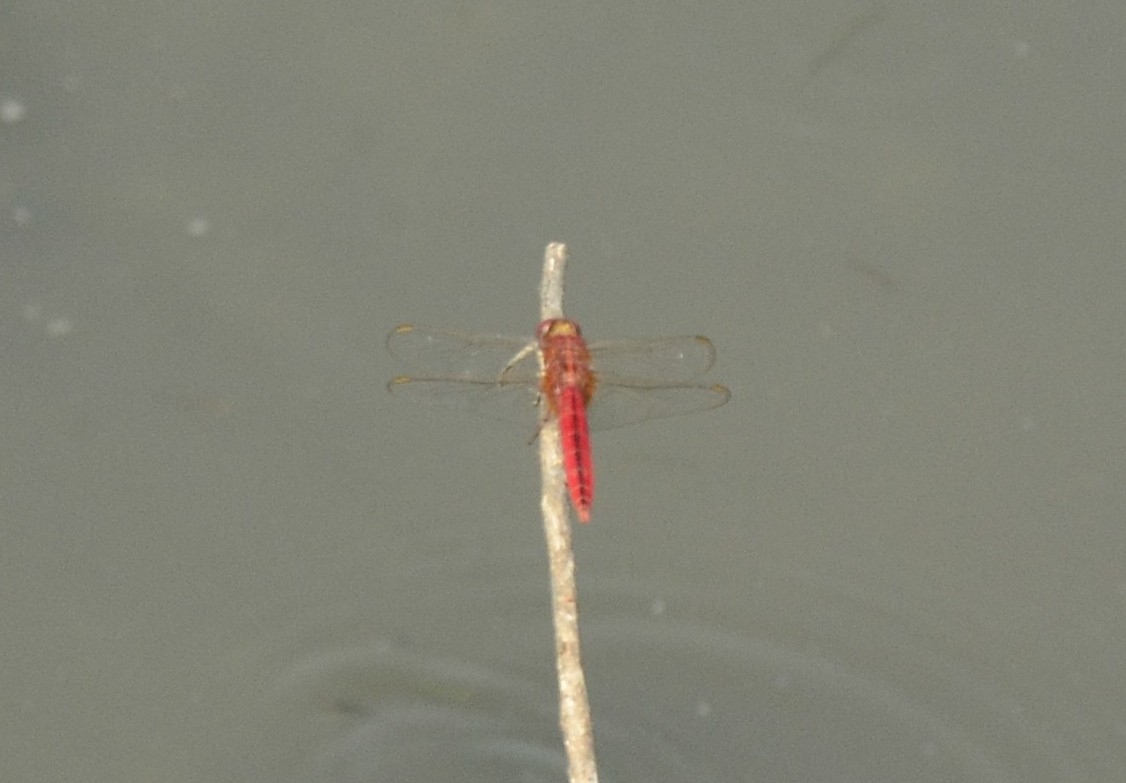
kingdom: Animalia
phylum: Arthropoda
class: Insecta
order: Odonata
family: Libellulidae
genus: Crocothemis
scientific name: Crocothemis servilia
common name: Scarlet skimmer
